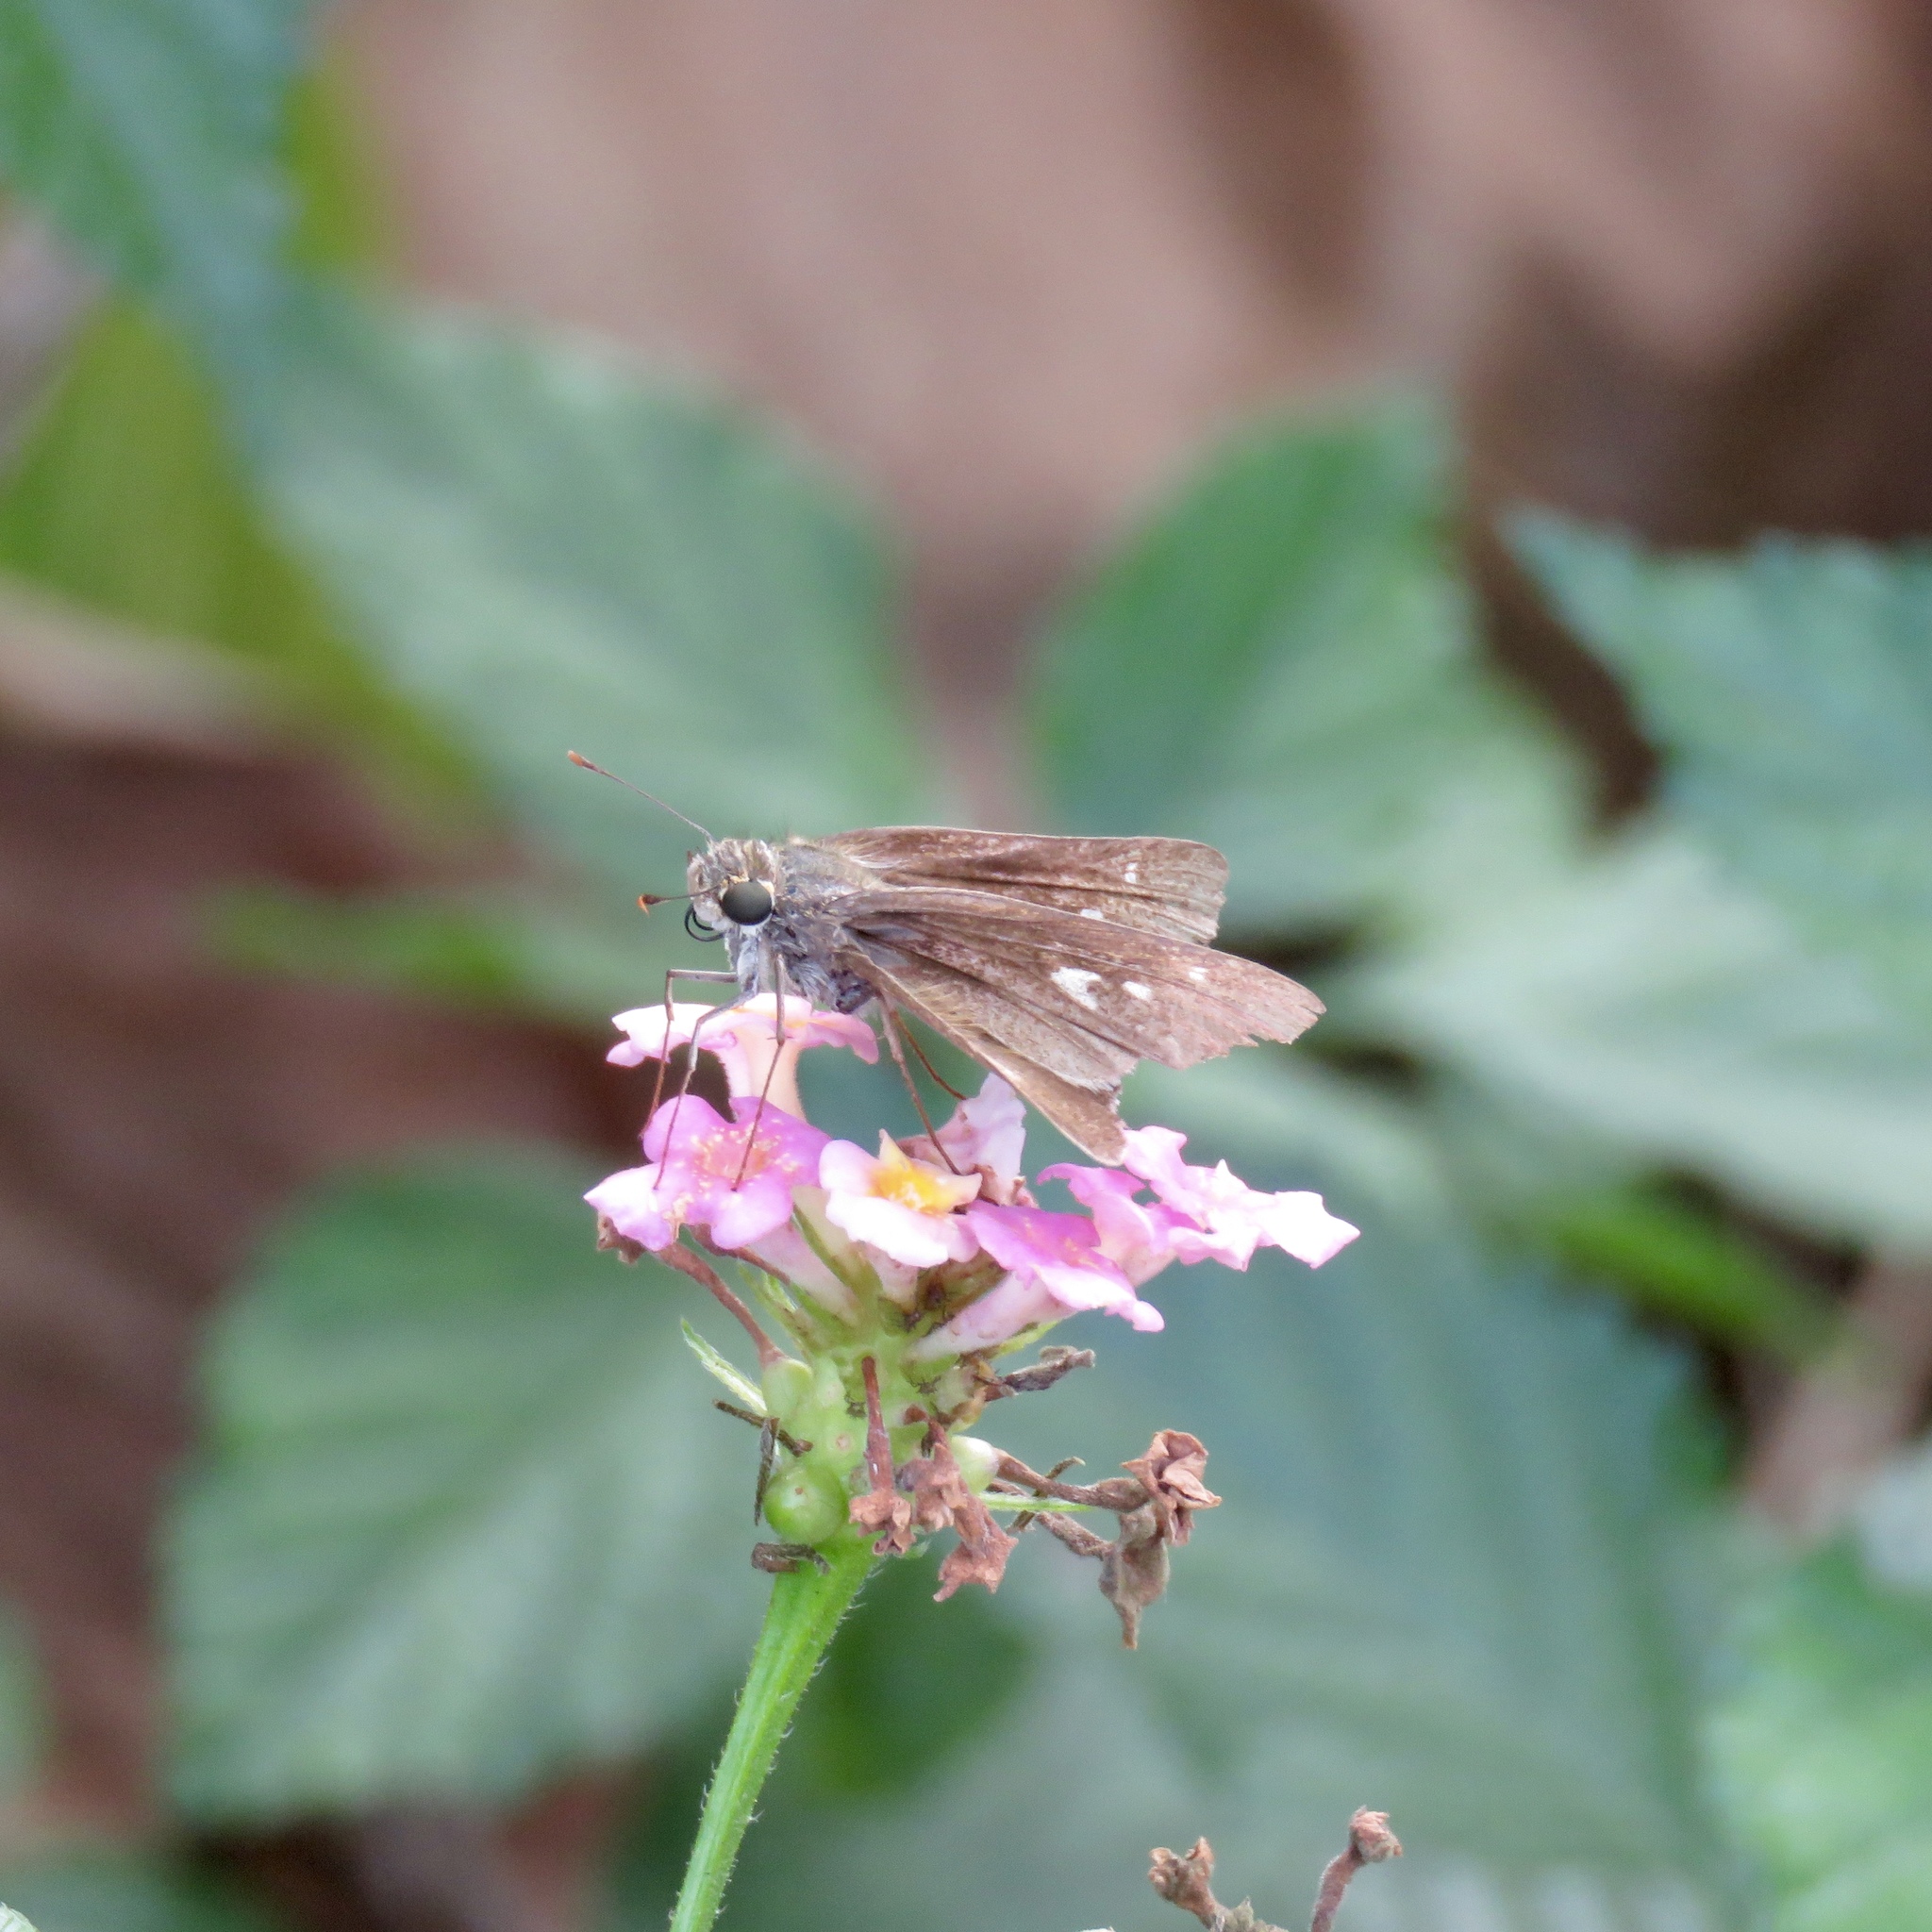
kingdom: Animalia
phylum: Arthropoda
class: Insecta
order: Lepidoptera
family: Hesperiidae
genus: Panoquina
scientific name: Panoquina ocola
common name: Ocola skipper
